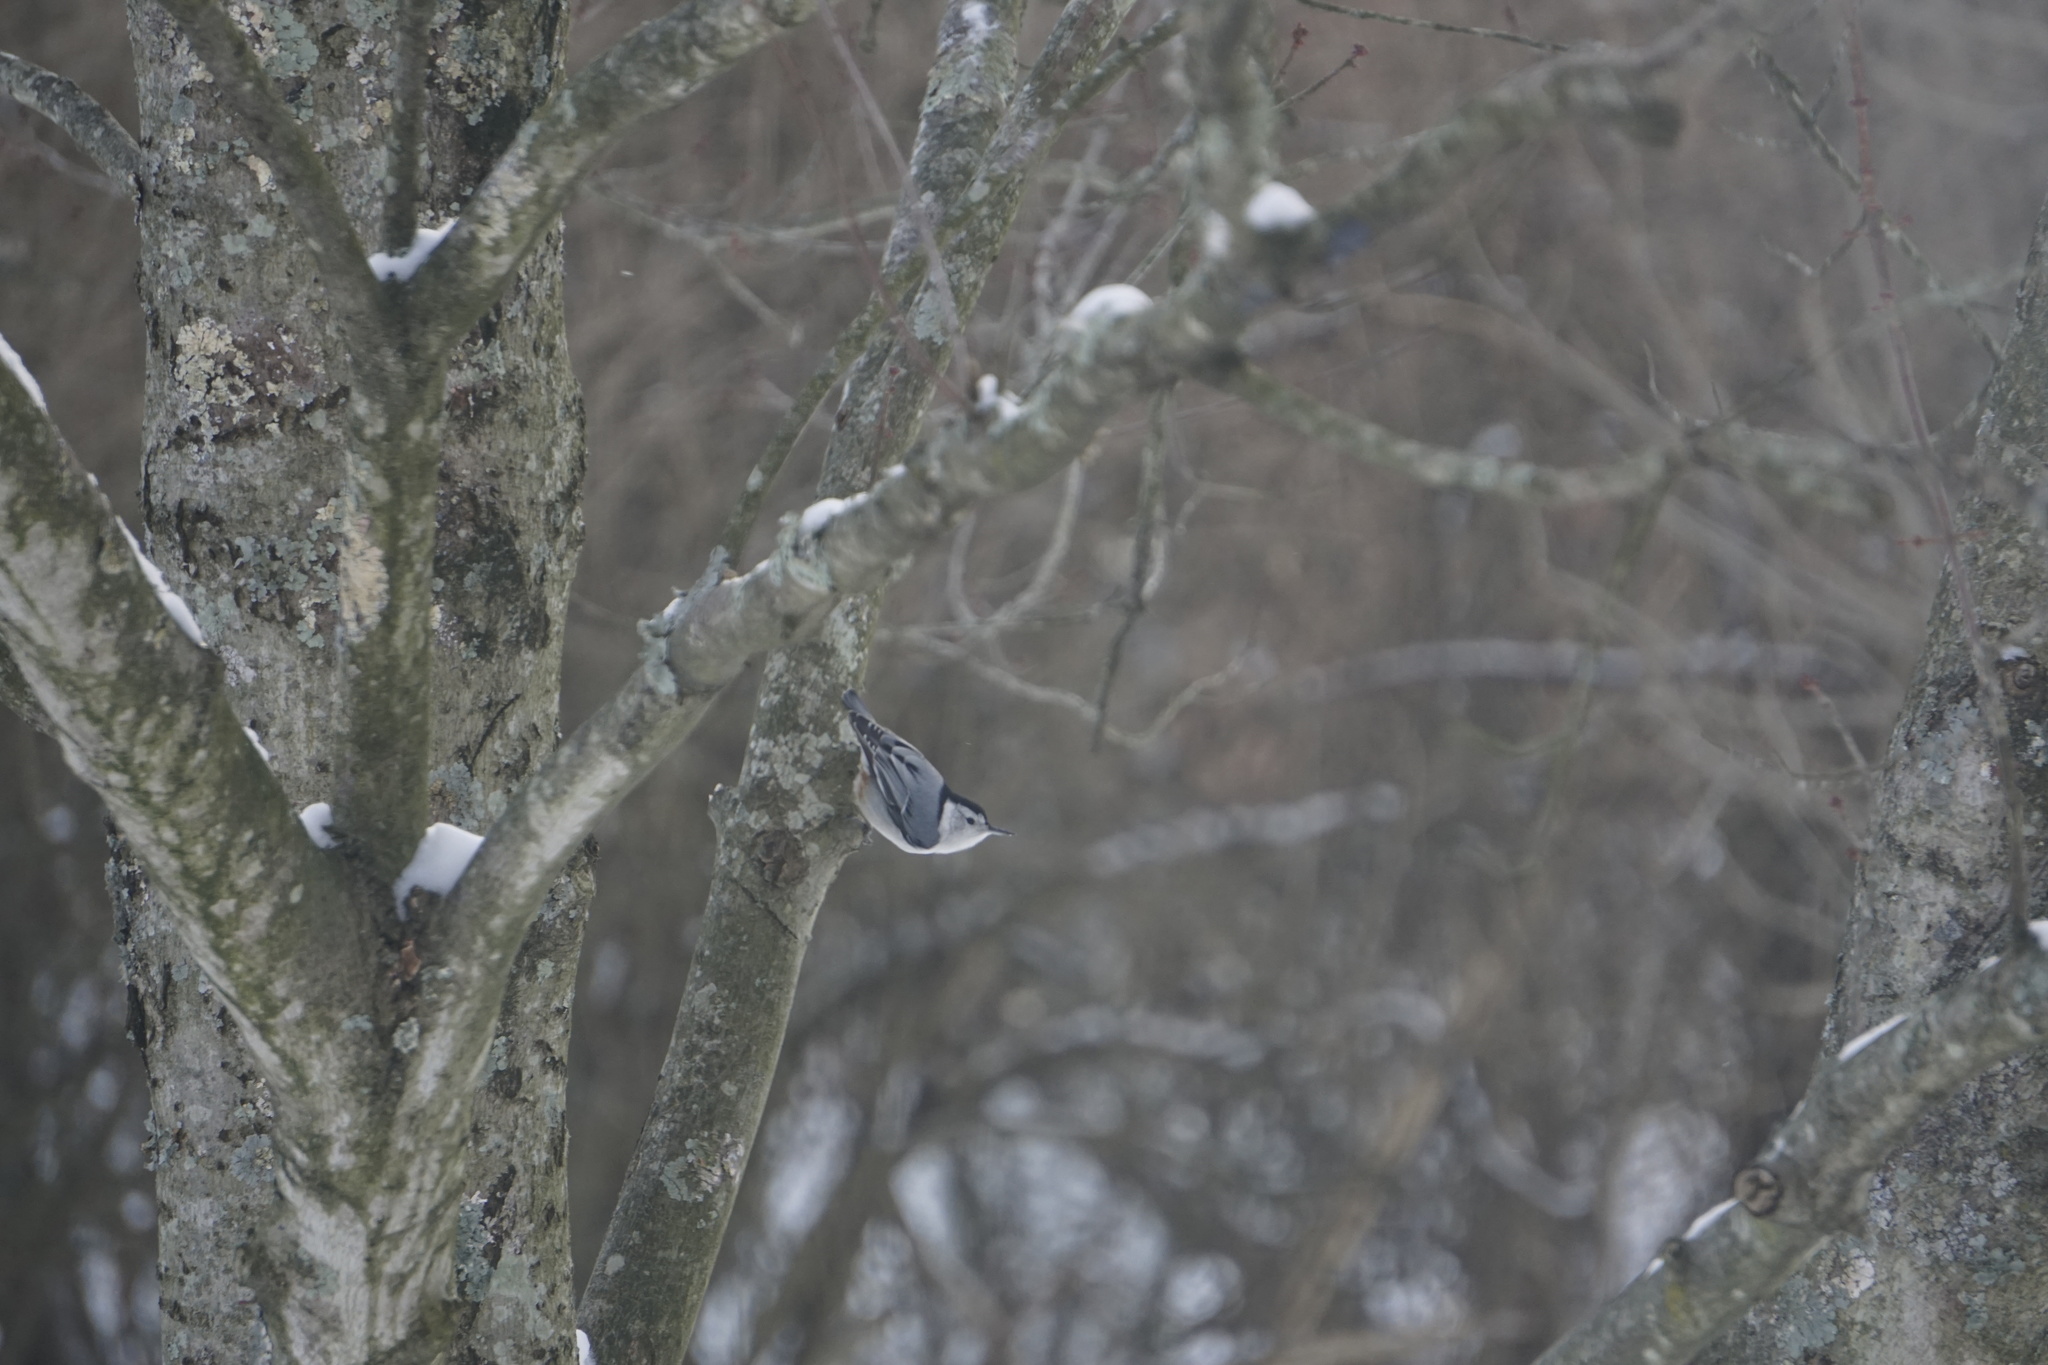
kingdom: Animalia
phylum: Chordata
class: Aves
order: Passeriformes
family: Sittidae
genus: Sitta
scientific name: Sitta carolinensis
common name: White-breasted nuthatch
